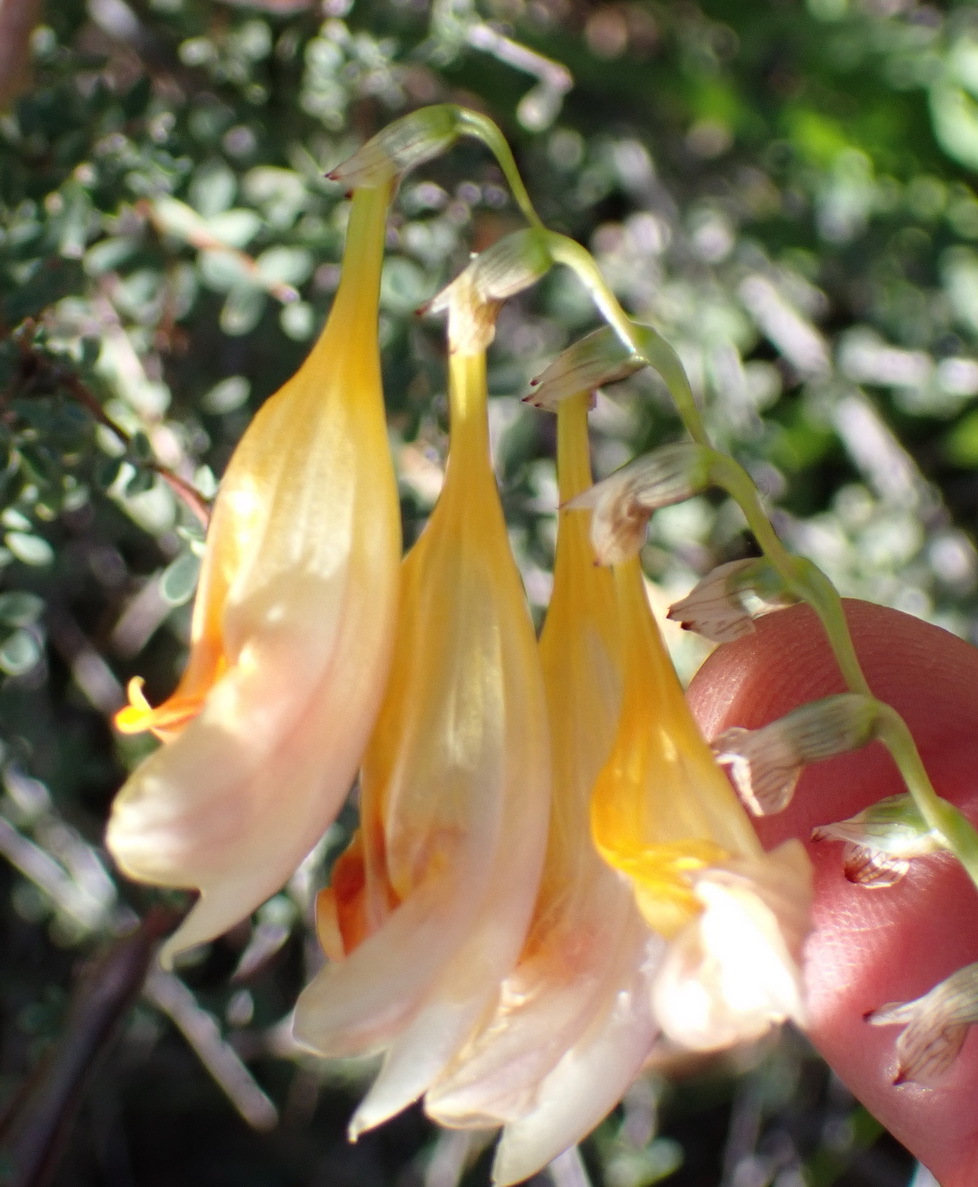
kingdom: Plantae
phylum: Tracheophyta
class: Liliopsida
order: Asparagales
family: Iridaceae
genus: Freesia
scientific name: Freesia corymbosa
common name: Common freesia
